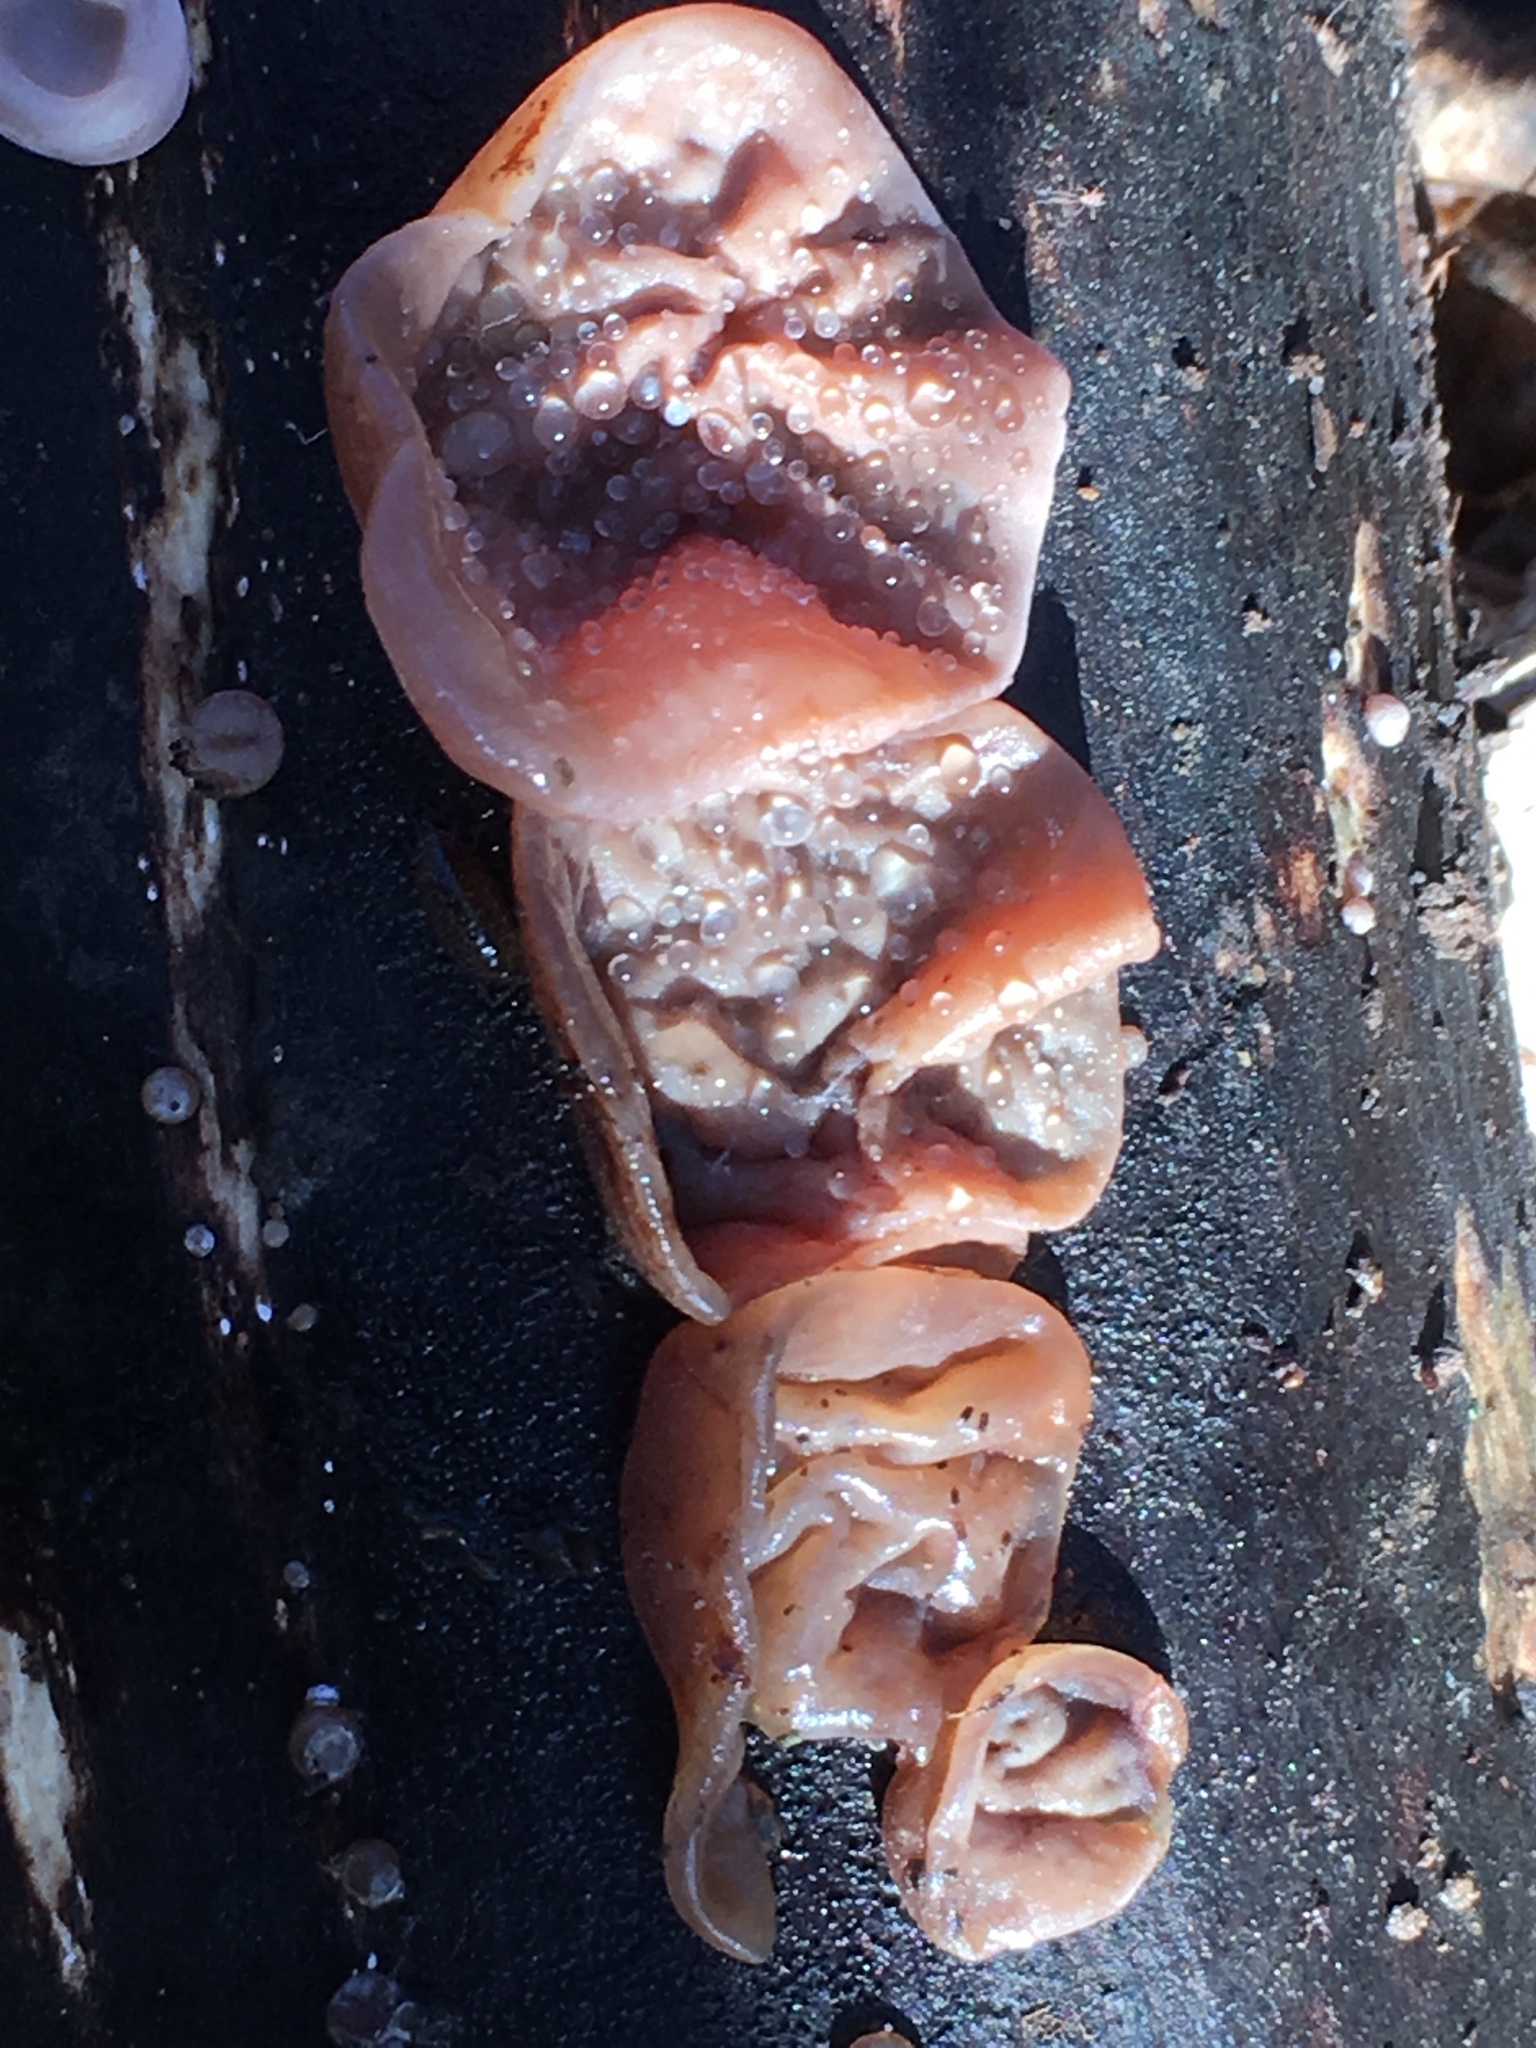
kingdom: Fungi
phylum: Basidiomycota
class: Agaricomycetes
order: Auriculariales
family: Auriculariaceae
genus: Auricularia
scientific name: Auricularia auricula-judae
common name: Jelly ear
